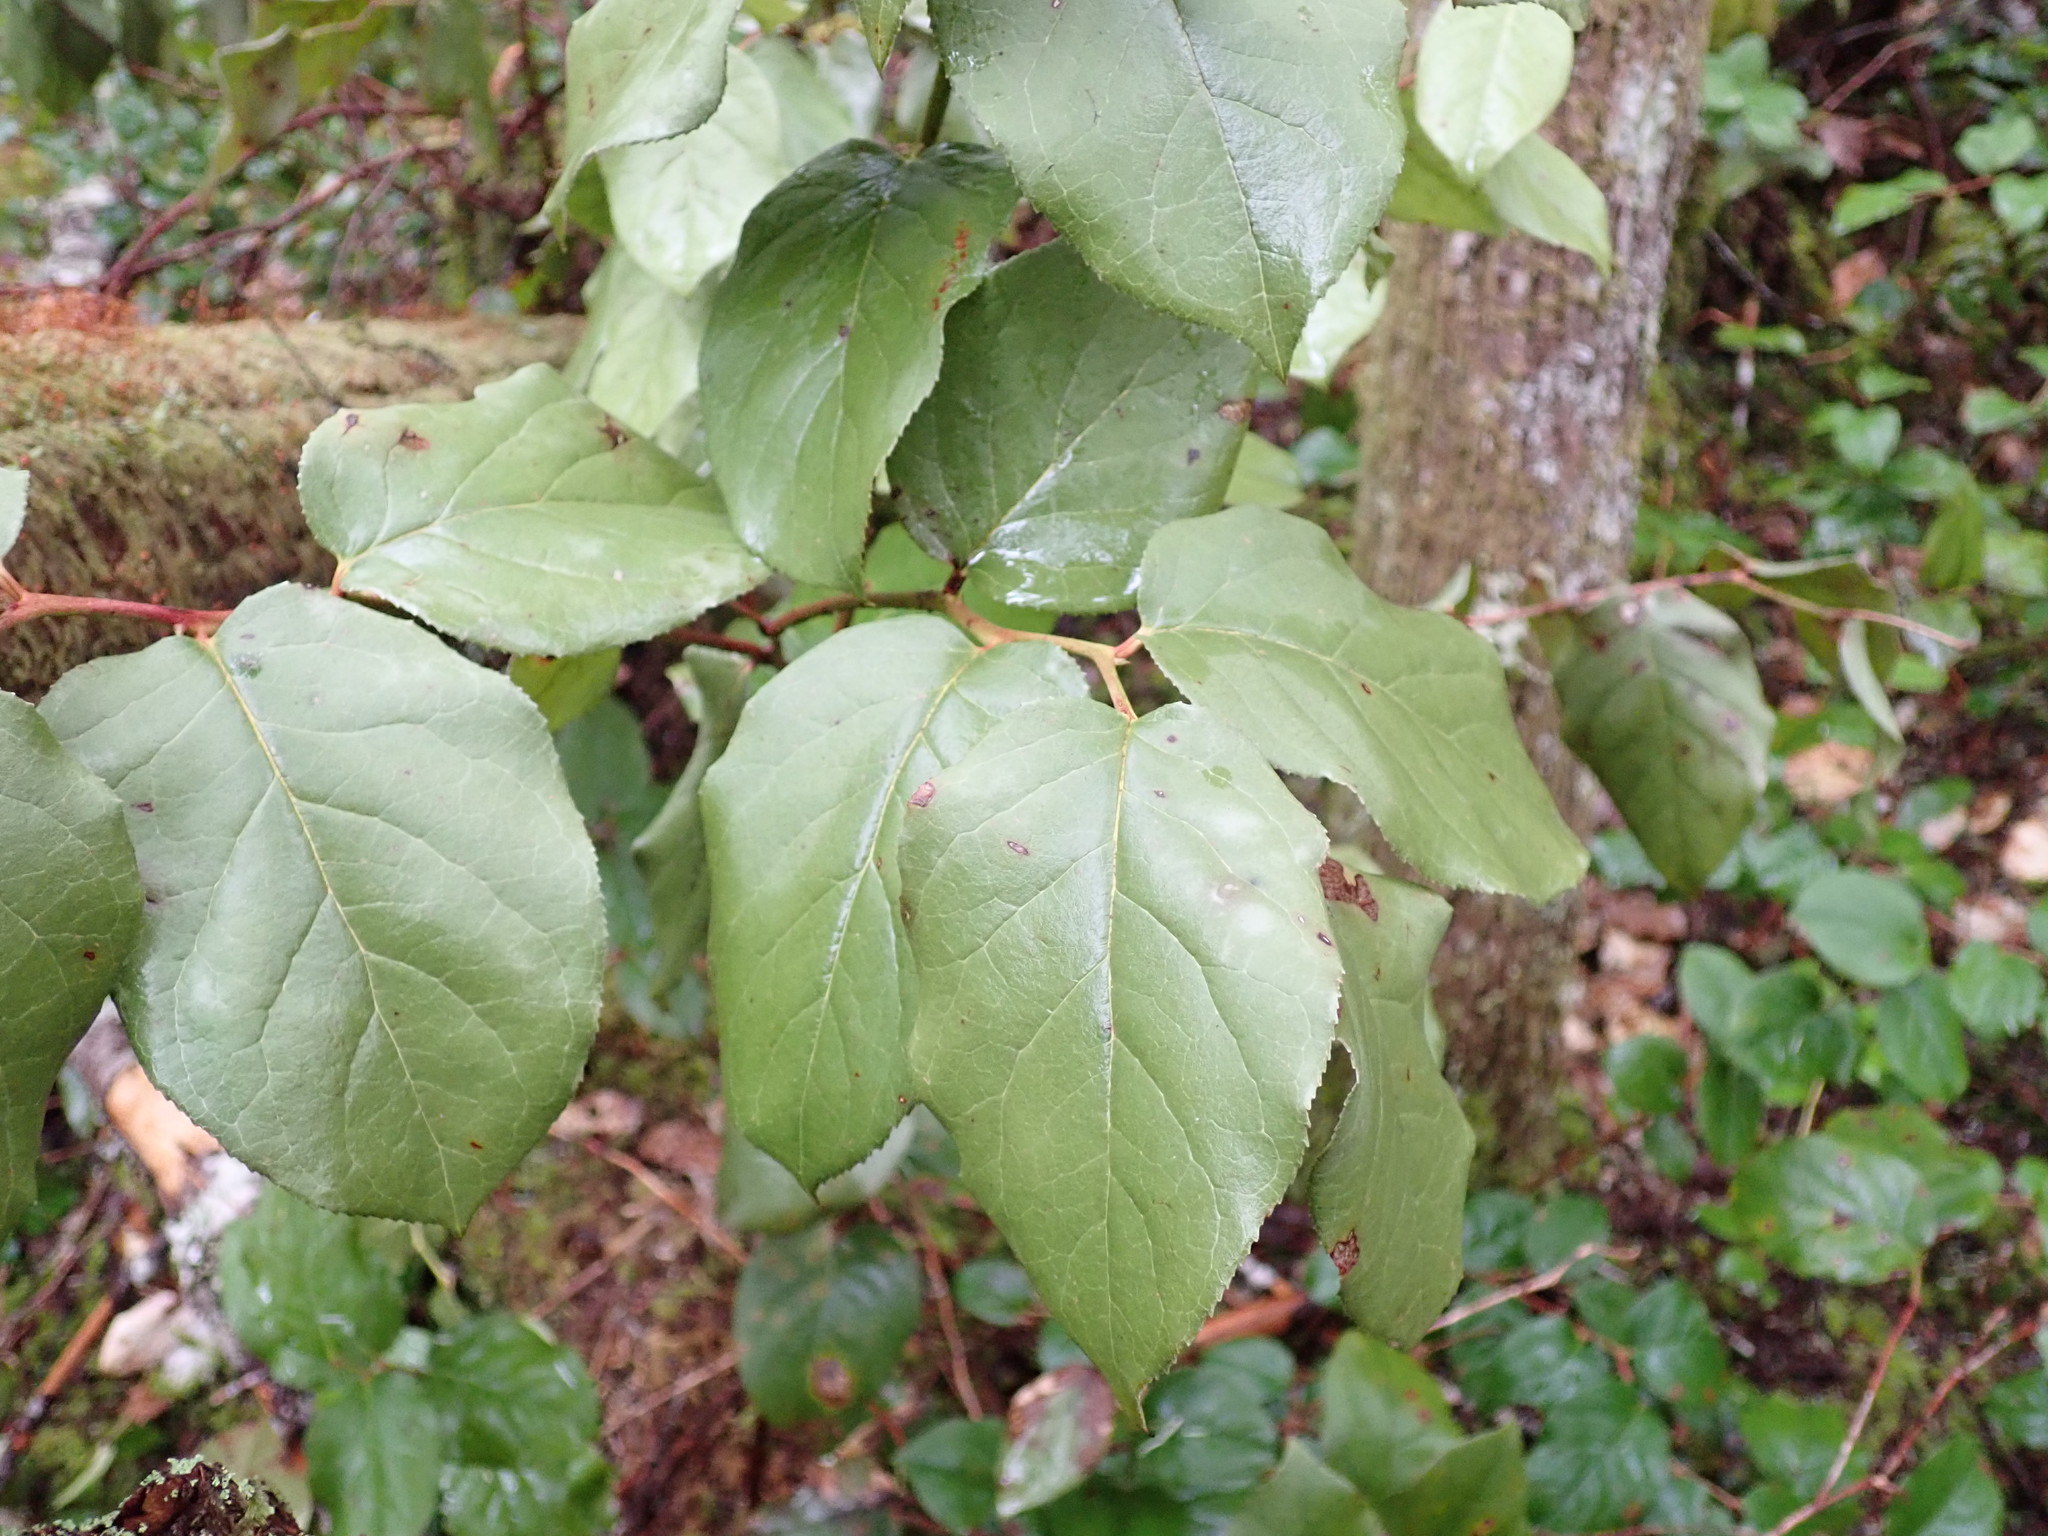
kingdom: Plantae
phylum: Tracheophyta
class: Magnoliopsida
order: Ericales
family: Ericaceae
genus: Gaultheria
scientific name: Gaultheria shallon
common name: Shallon
